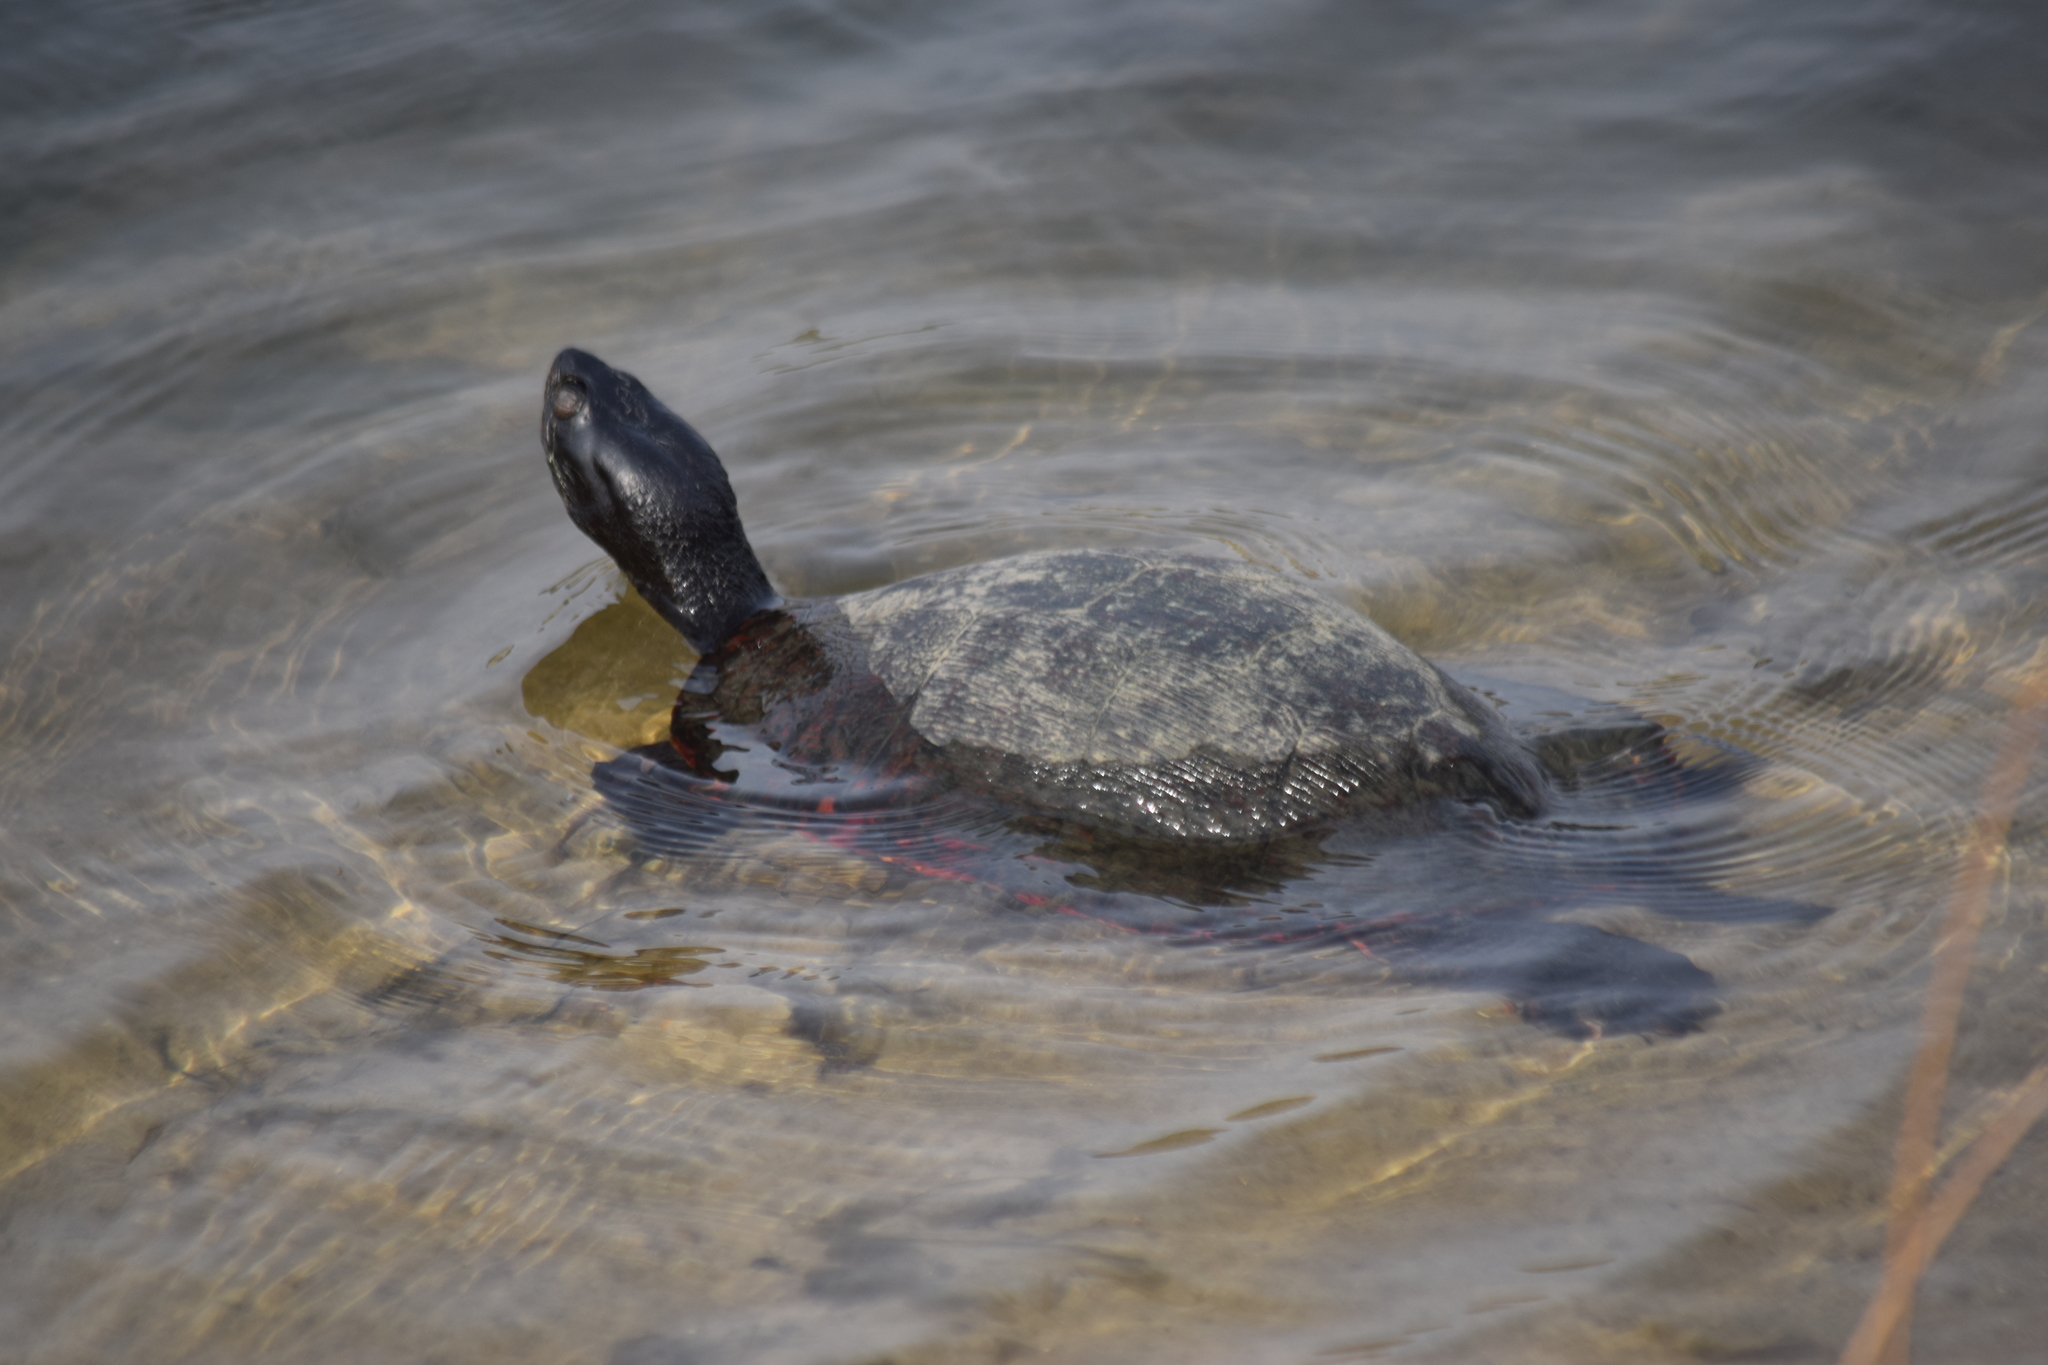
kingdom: Animalia
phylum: Chordata
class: Testudines
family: Emydidae
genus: Pseudemys
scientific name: Pseudemys rubriventris
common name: American red-bellied turtle
